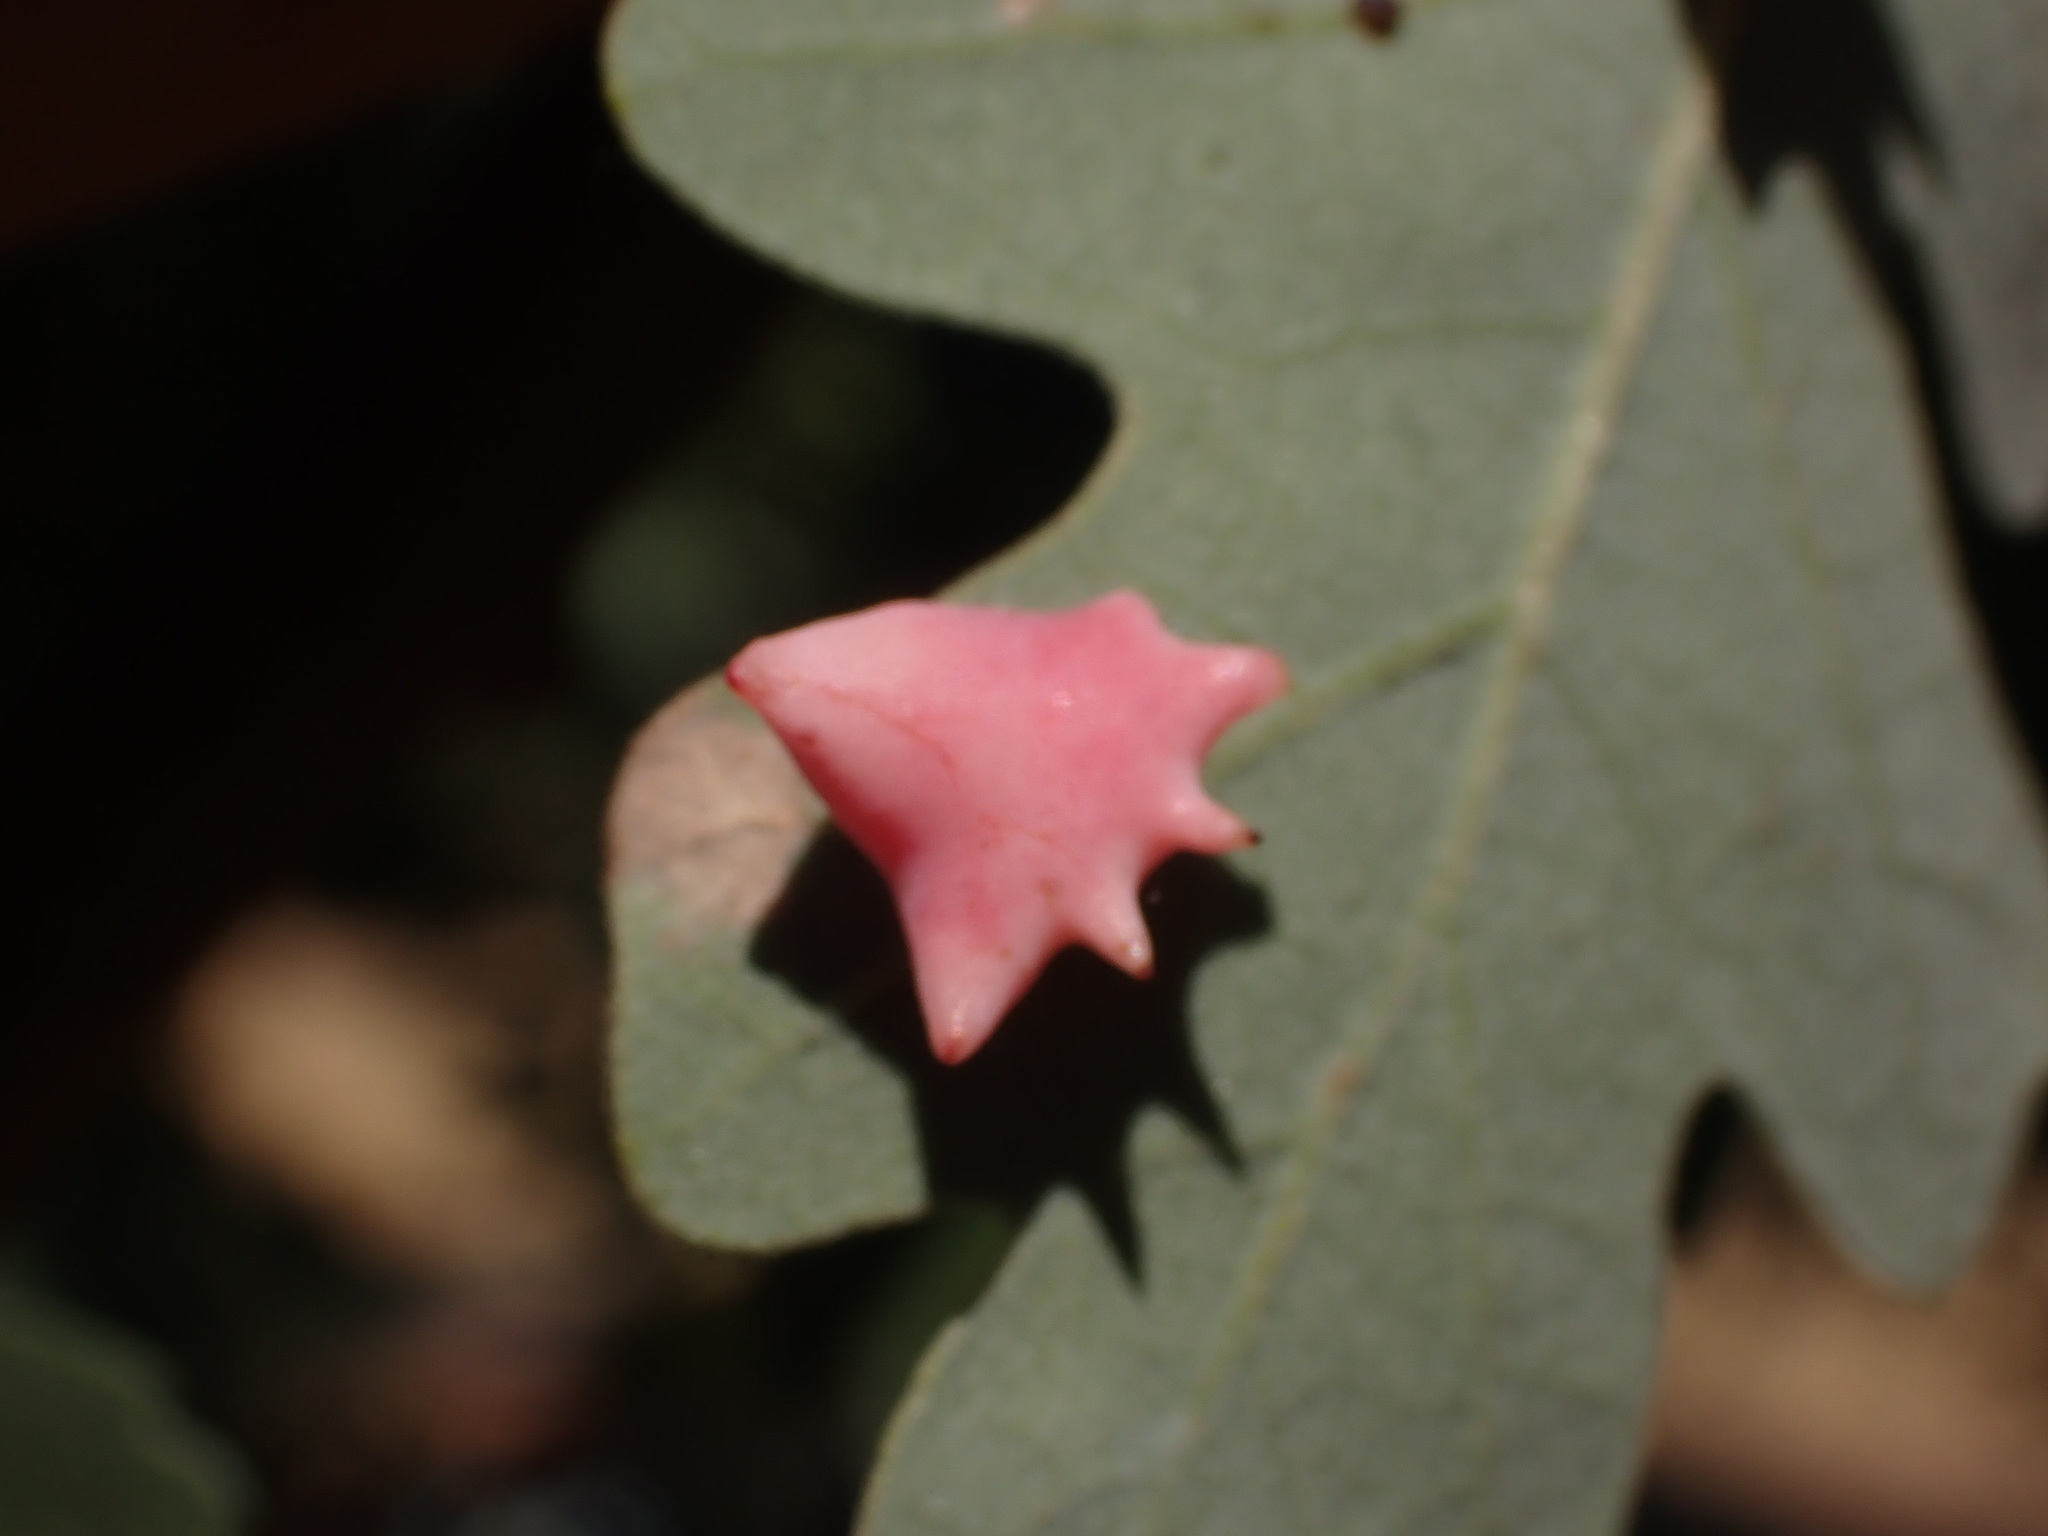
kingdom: Animalia
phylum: Arthropoda
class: Insecta
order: Hymenoptera
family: Cynipidae
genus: Cynips
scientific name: Cynips douglasi
